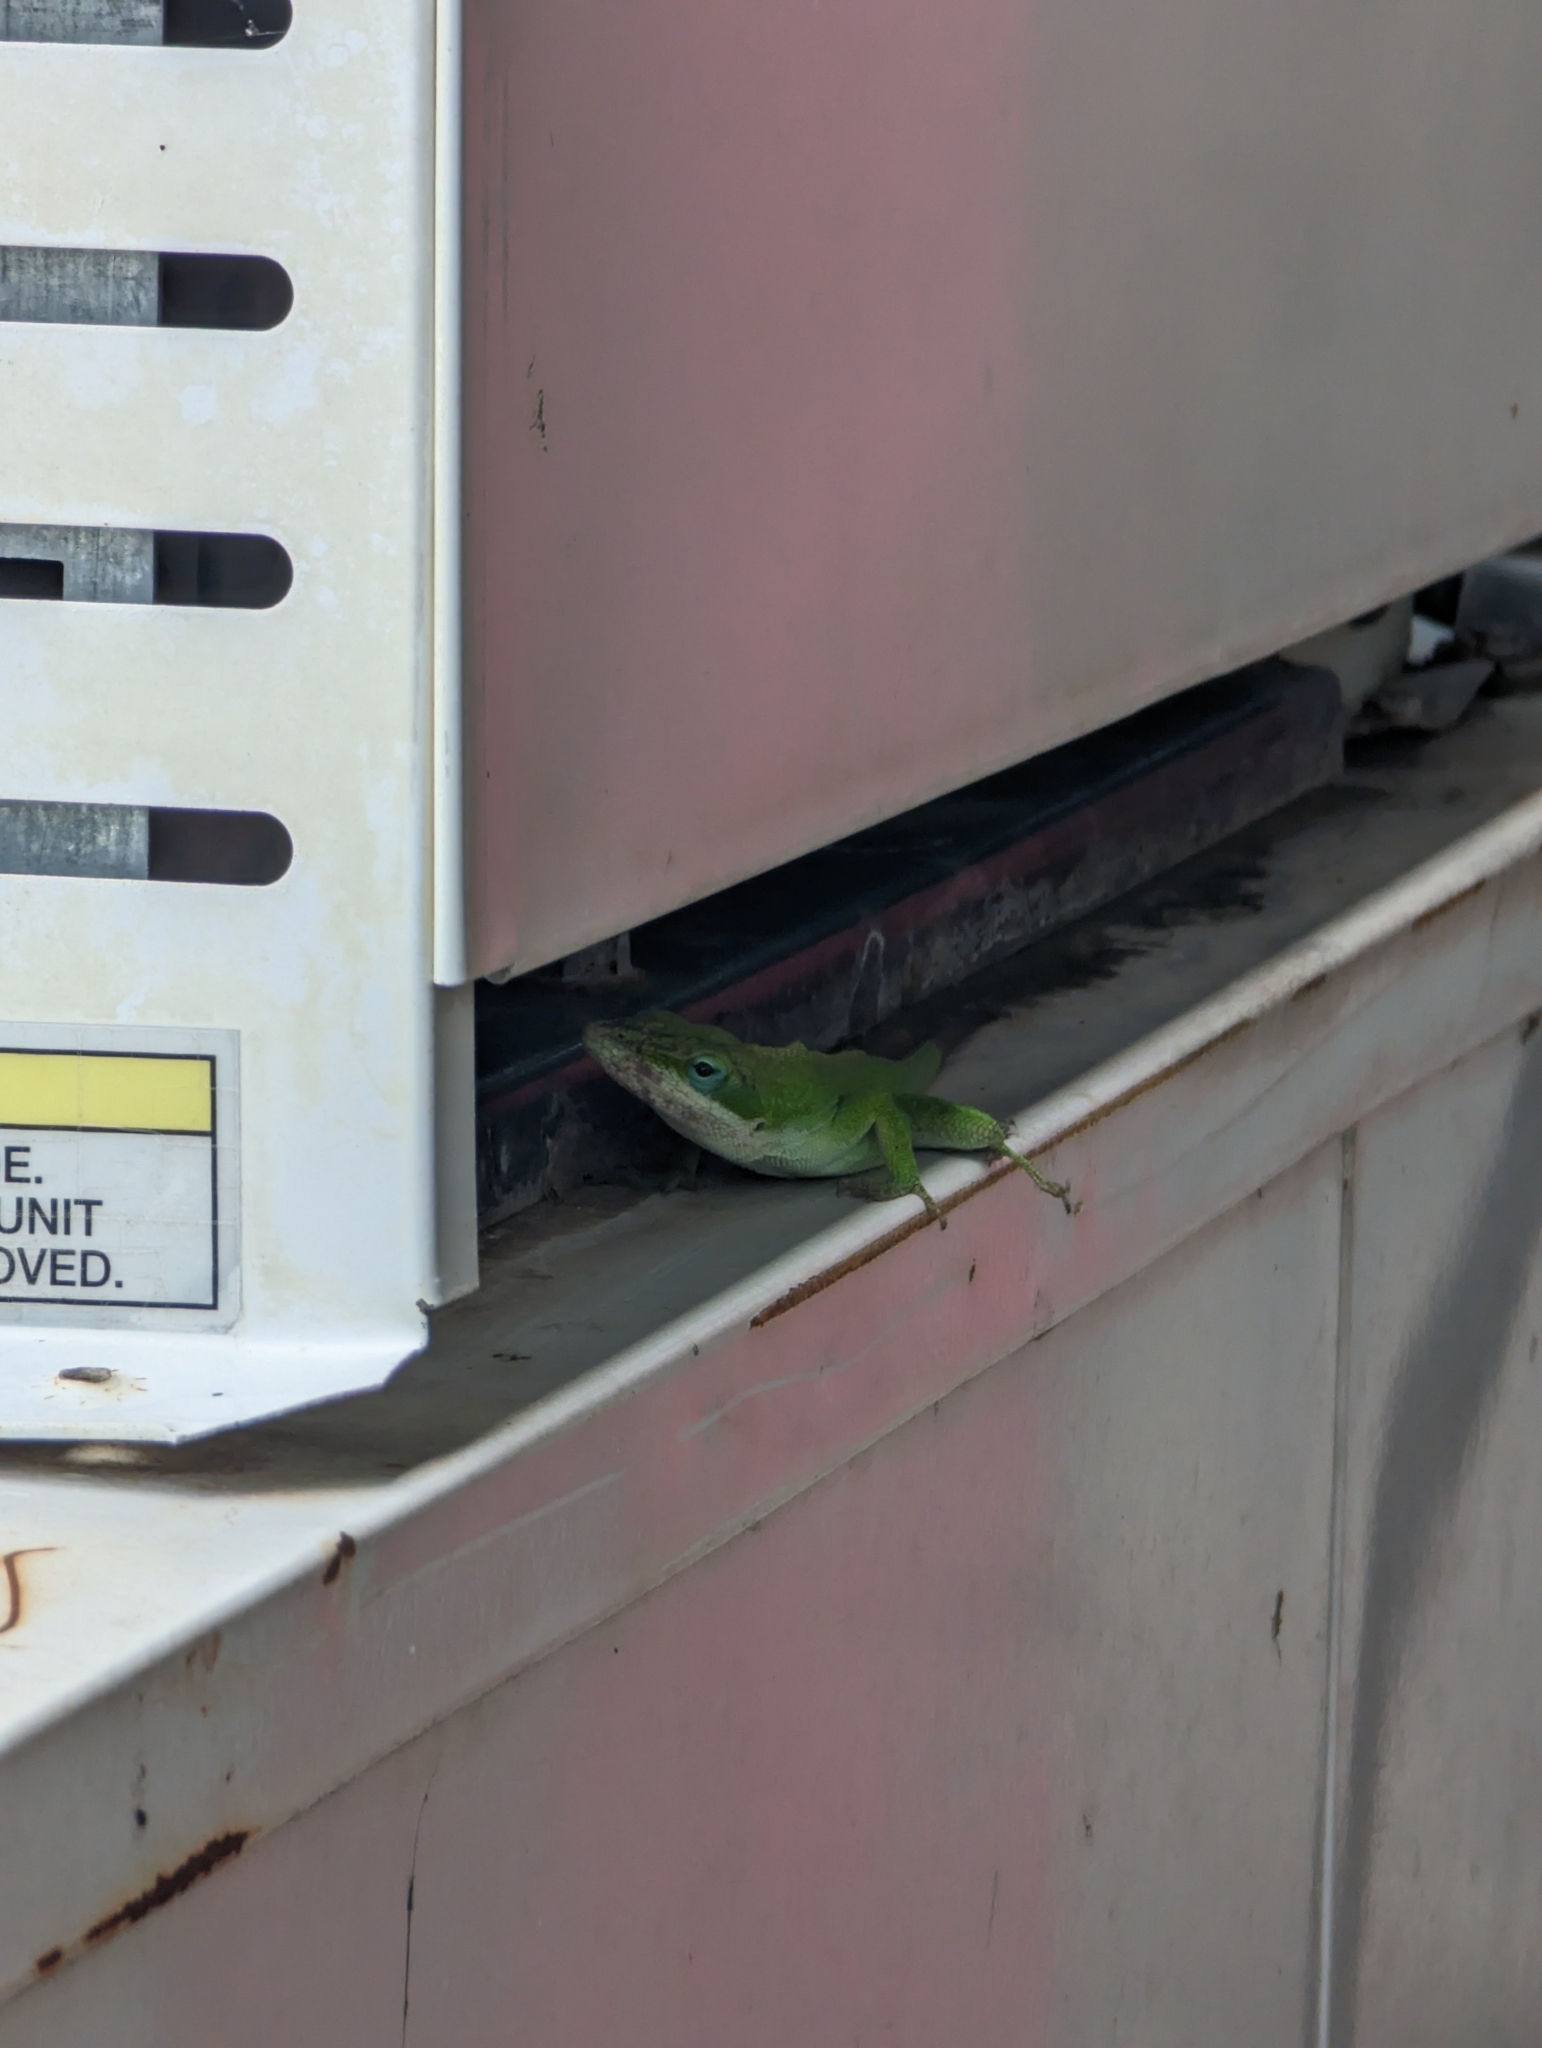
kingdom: Animalia
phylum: Chordata
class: Squamata
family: Dactyloidae
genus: Anolis
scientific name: Anolis carolinensis
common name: Green anole
